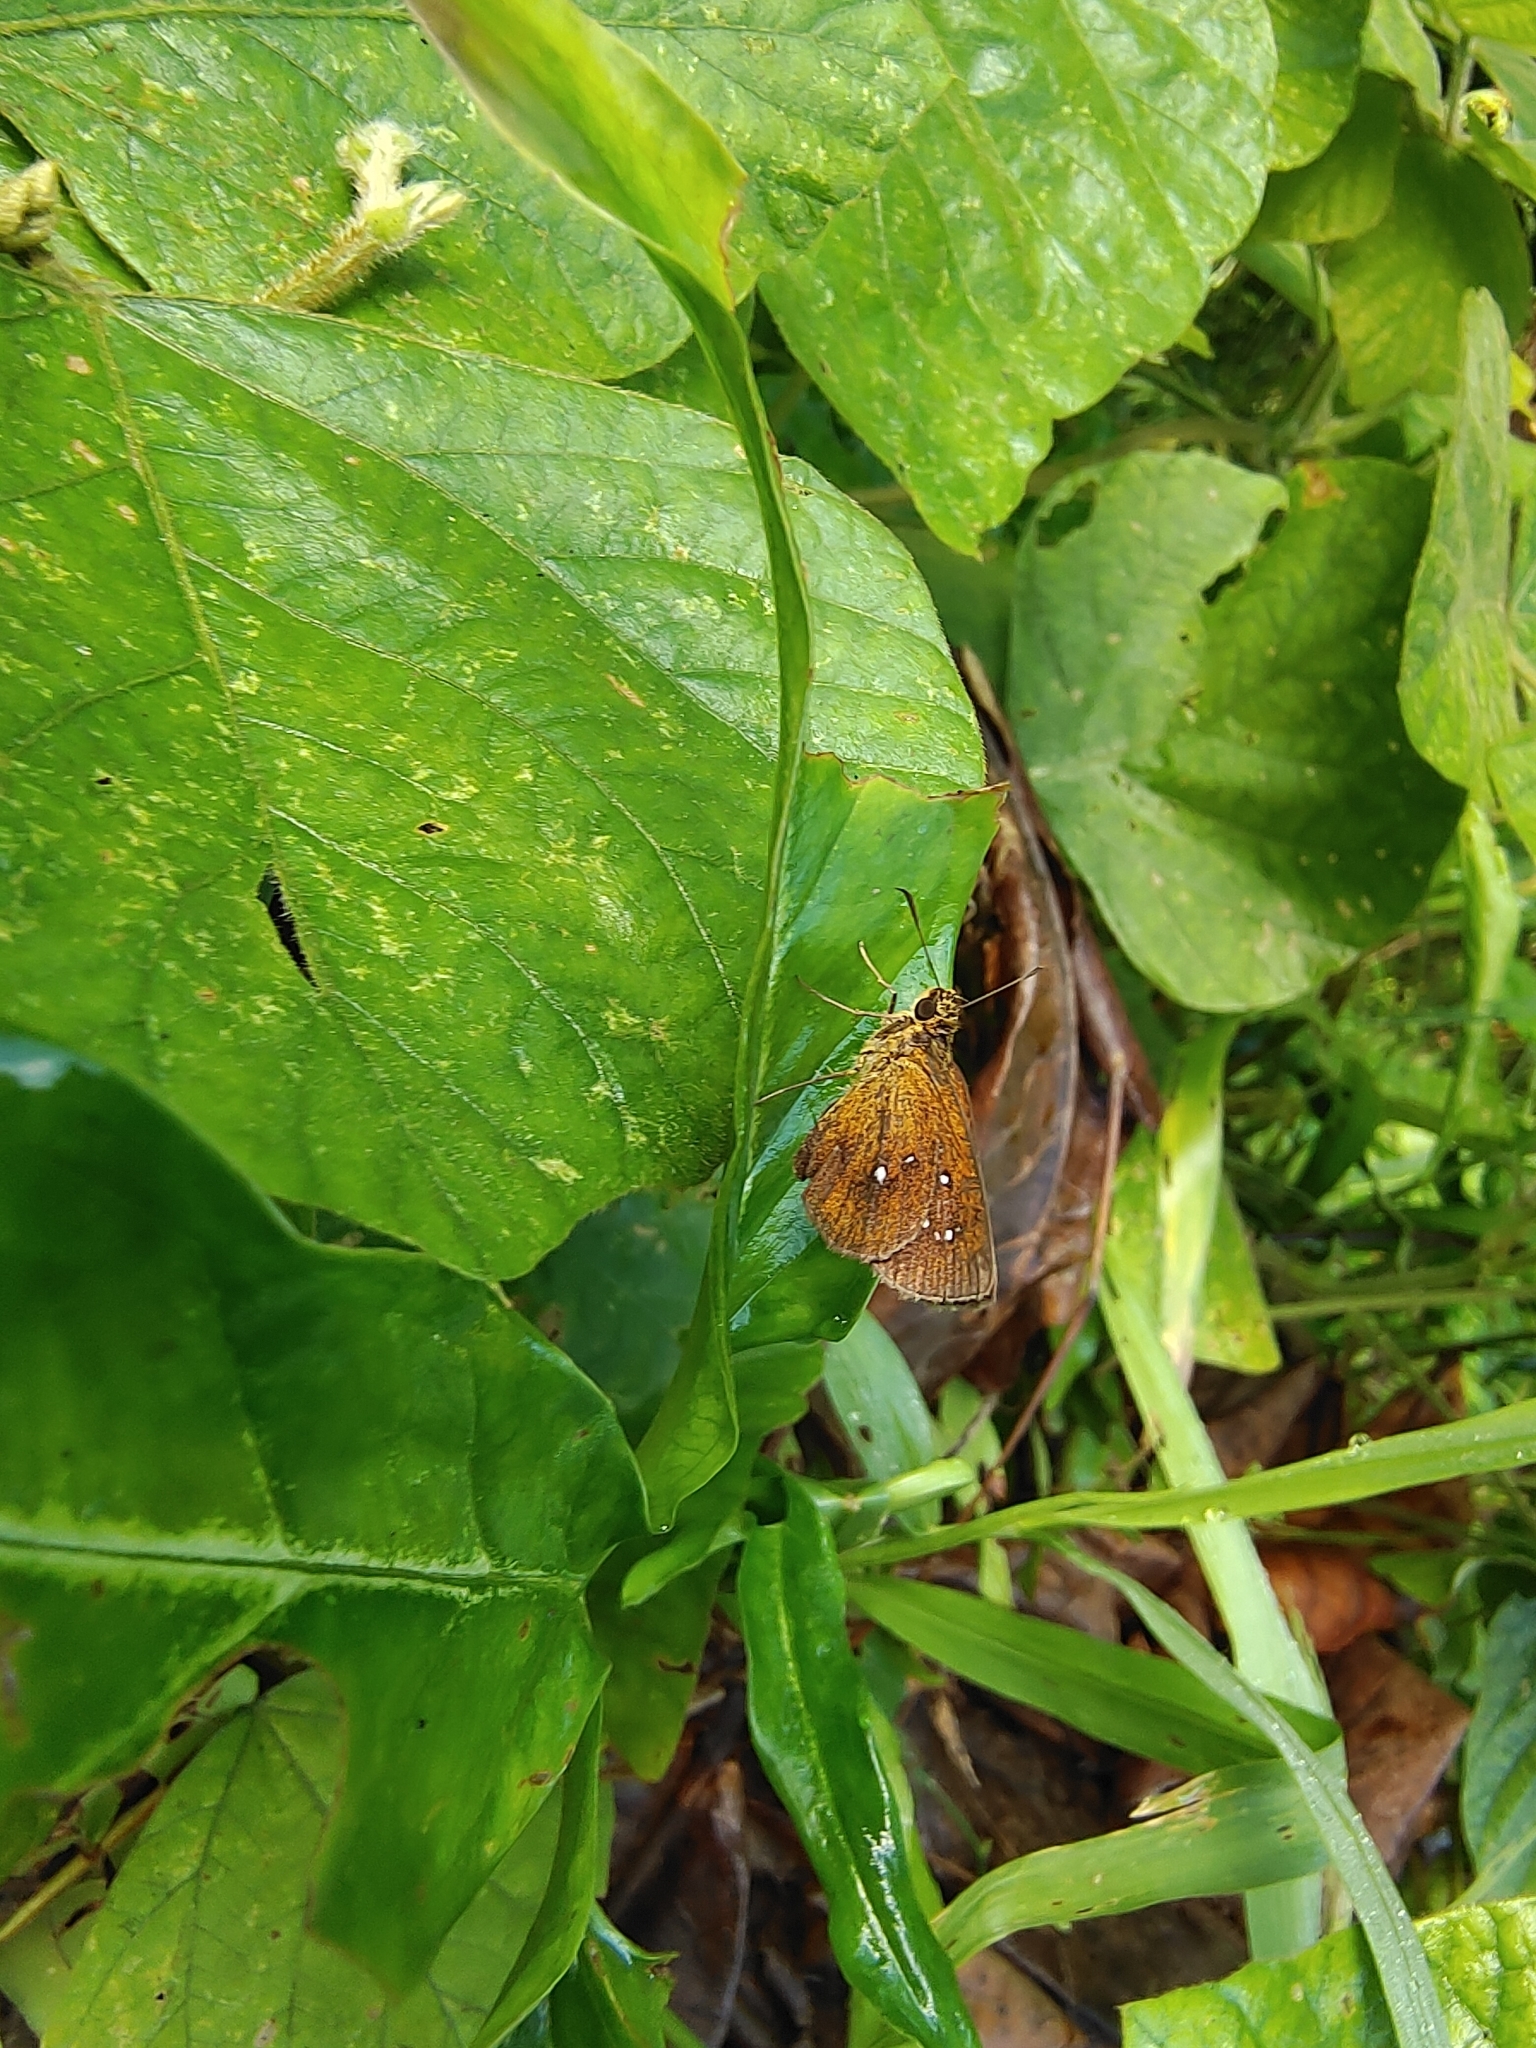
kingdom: Animalia
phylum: Arthropoda
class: Insecta
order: Lepidoptera
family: Hesperiidae
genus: Iambrix
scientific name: Iambrix salsala
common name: Chestnut bob
